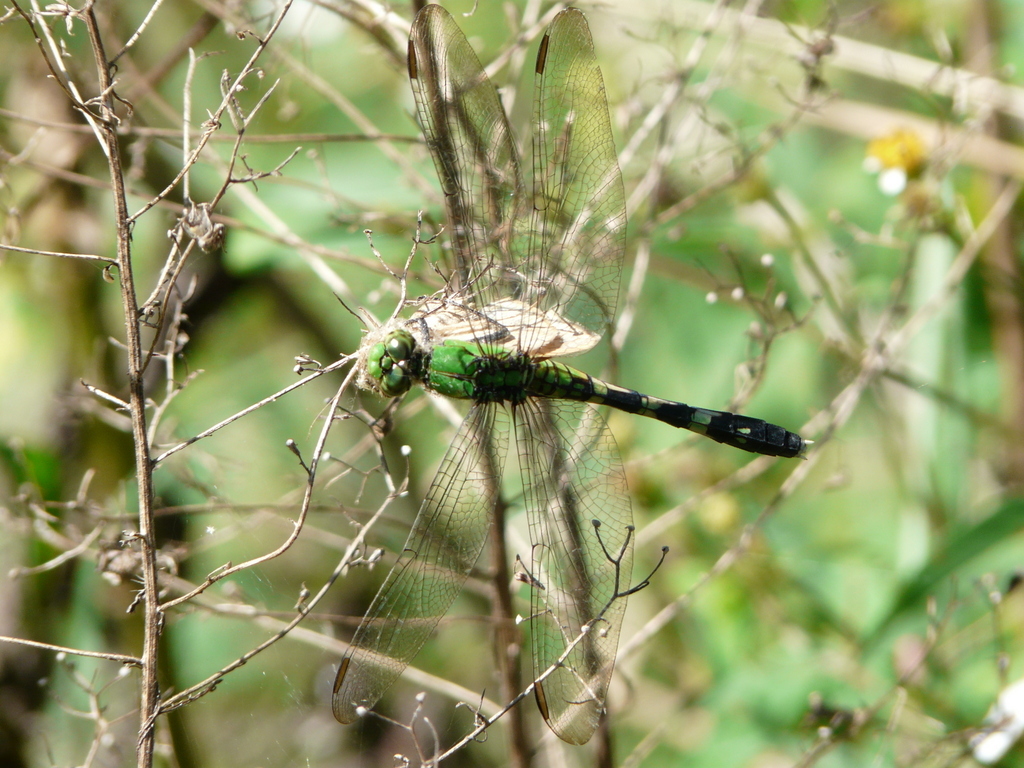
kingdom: Animalia
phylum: Arthropoda
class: Insecta
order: Odonata
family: Libellulidae
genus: Erythemis
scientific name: Erythemis simplicicollis
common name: Eastern pondhawk
